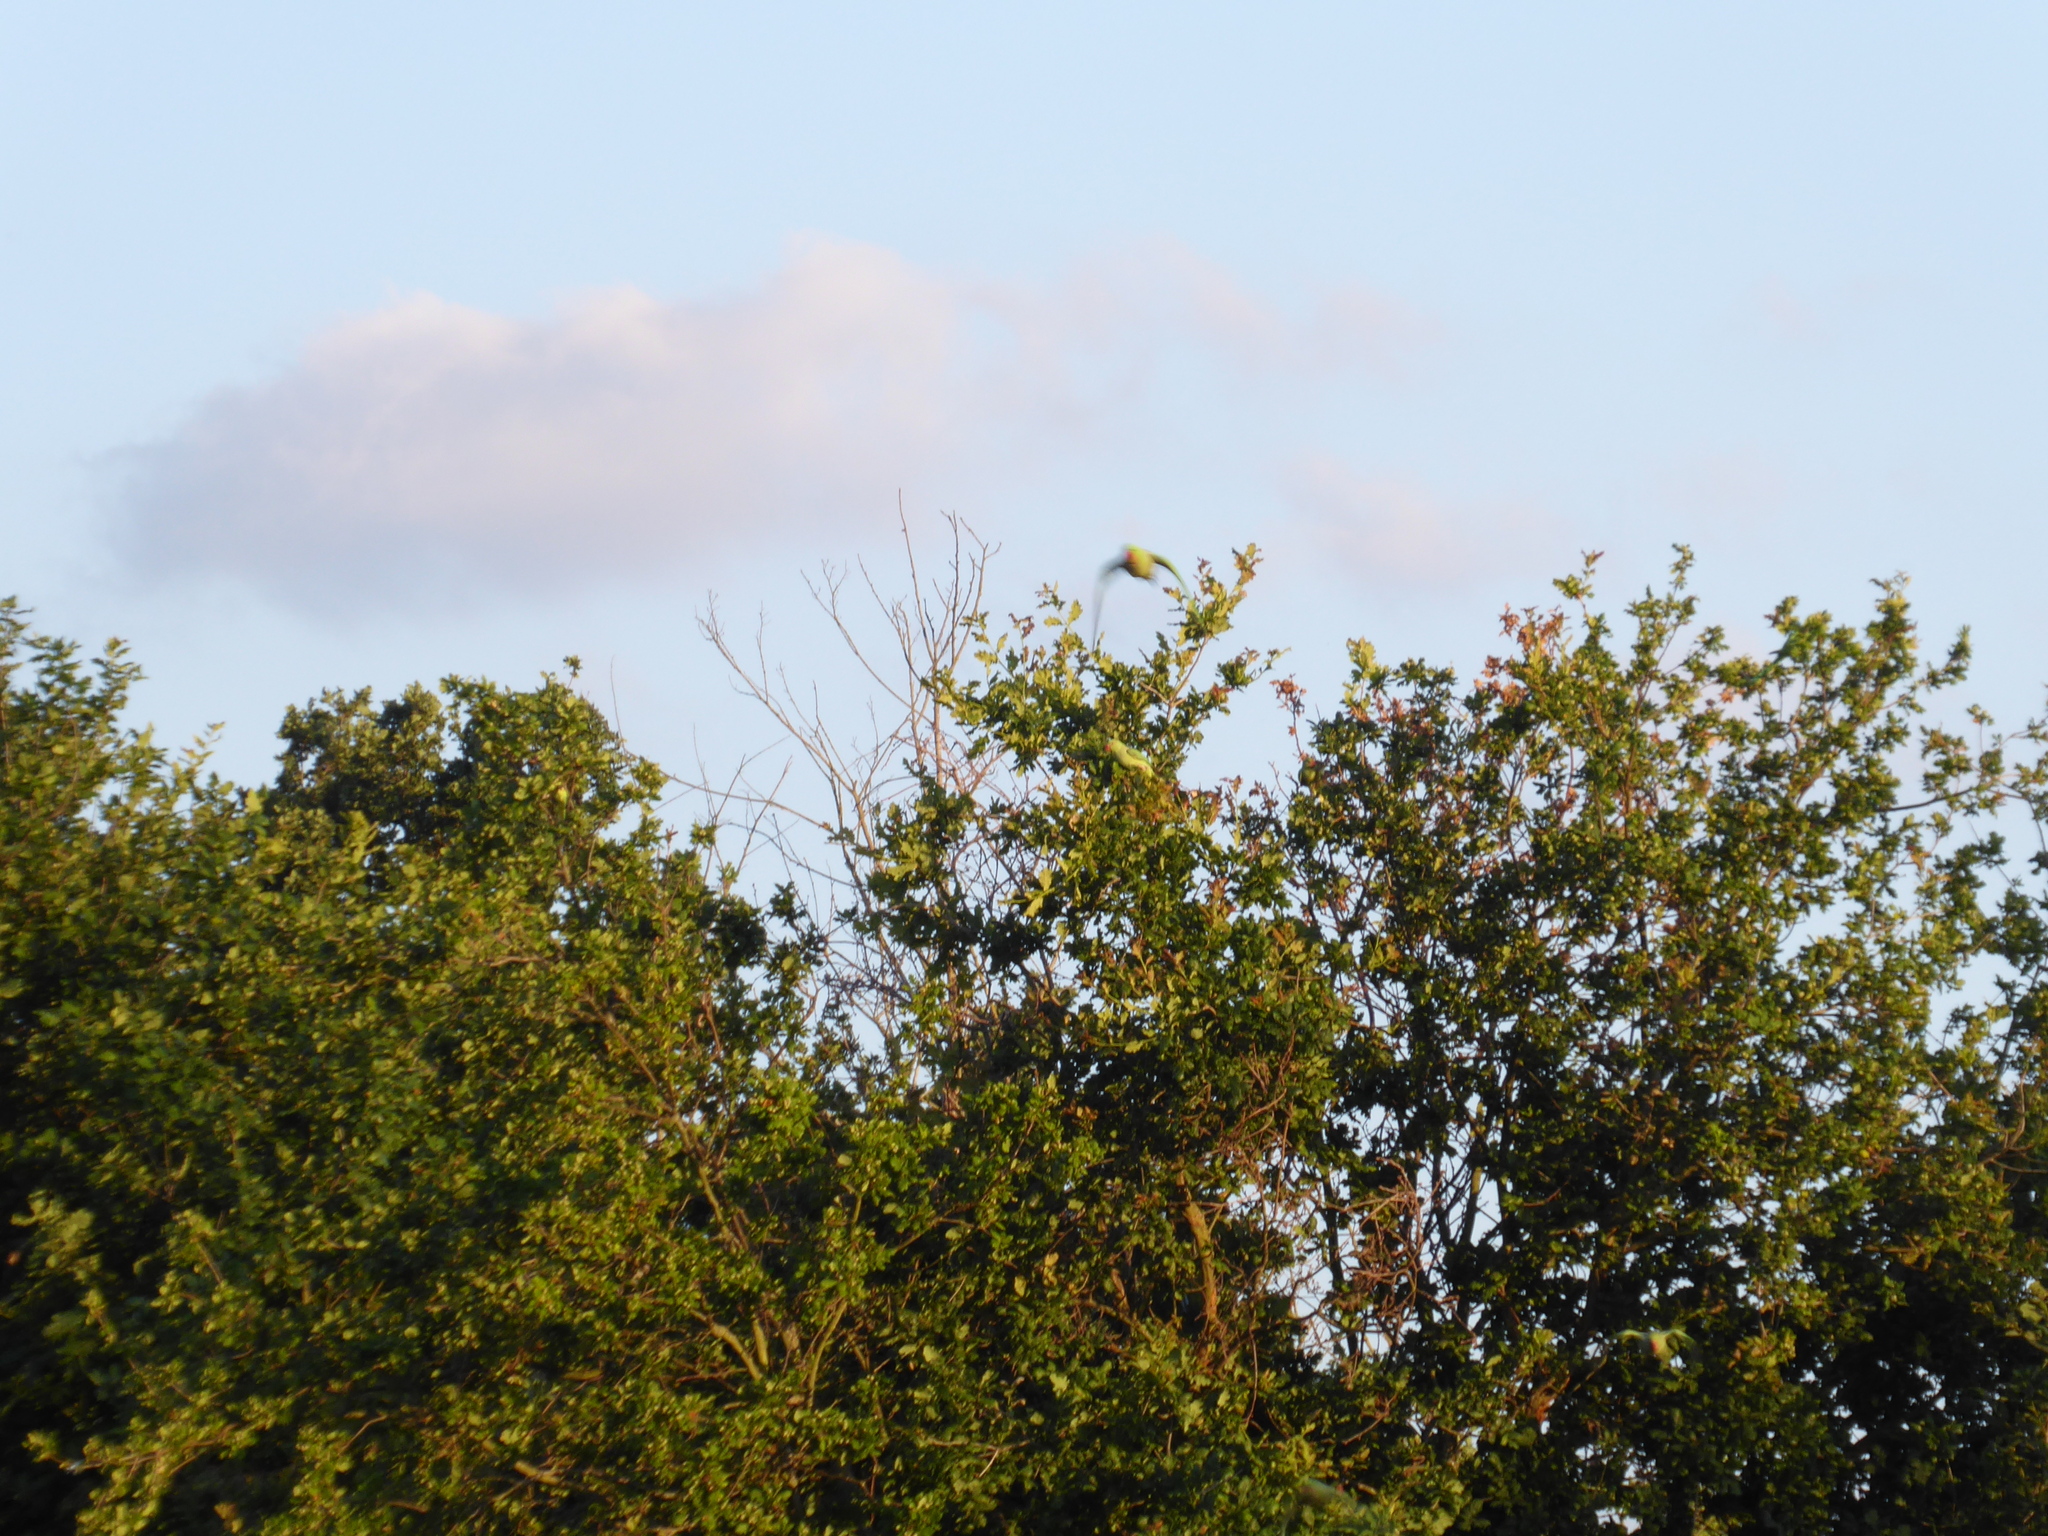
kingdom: Animalia
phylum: Chordata
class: Aves
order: Psittaciformes
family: Psittacidae
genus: Psittacula
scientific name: Psittacula krameri
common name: Rose-ringed parakeet
